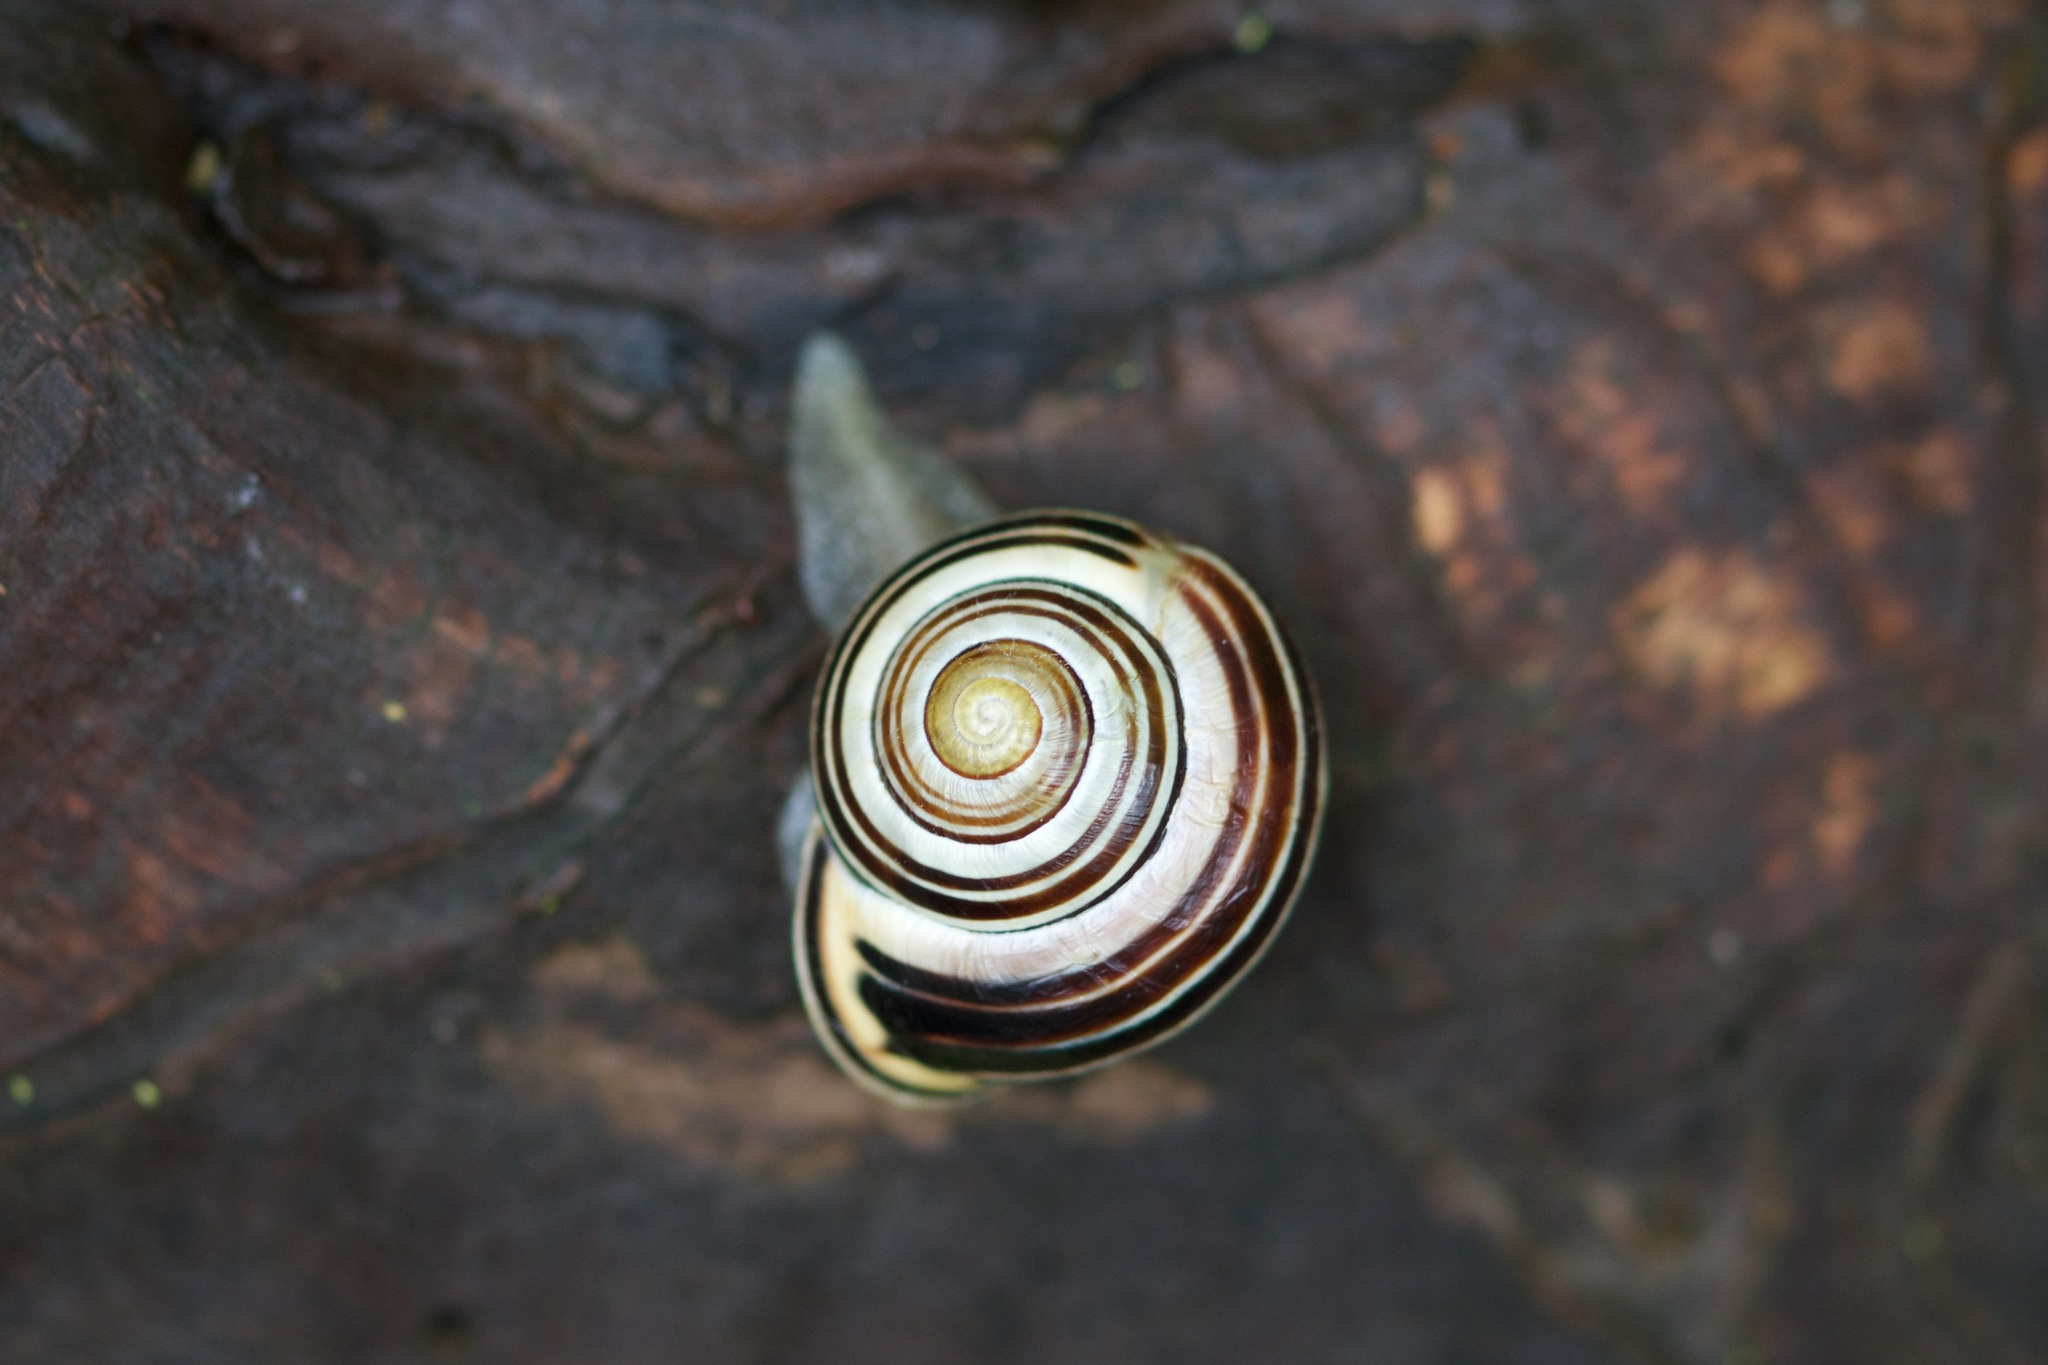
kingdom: Animalia
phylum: Mollusca
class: Gastropoda
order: Stylommatophora
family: Helicidae
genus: Cepaea
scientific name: Cepaea nemoralis
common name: Grovesnail
